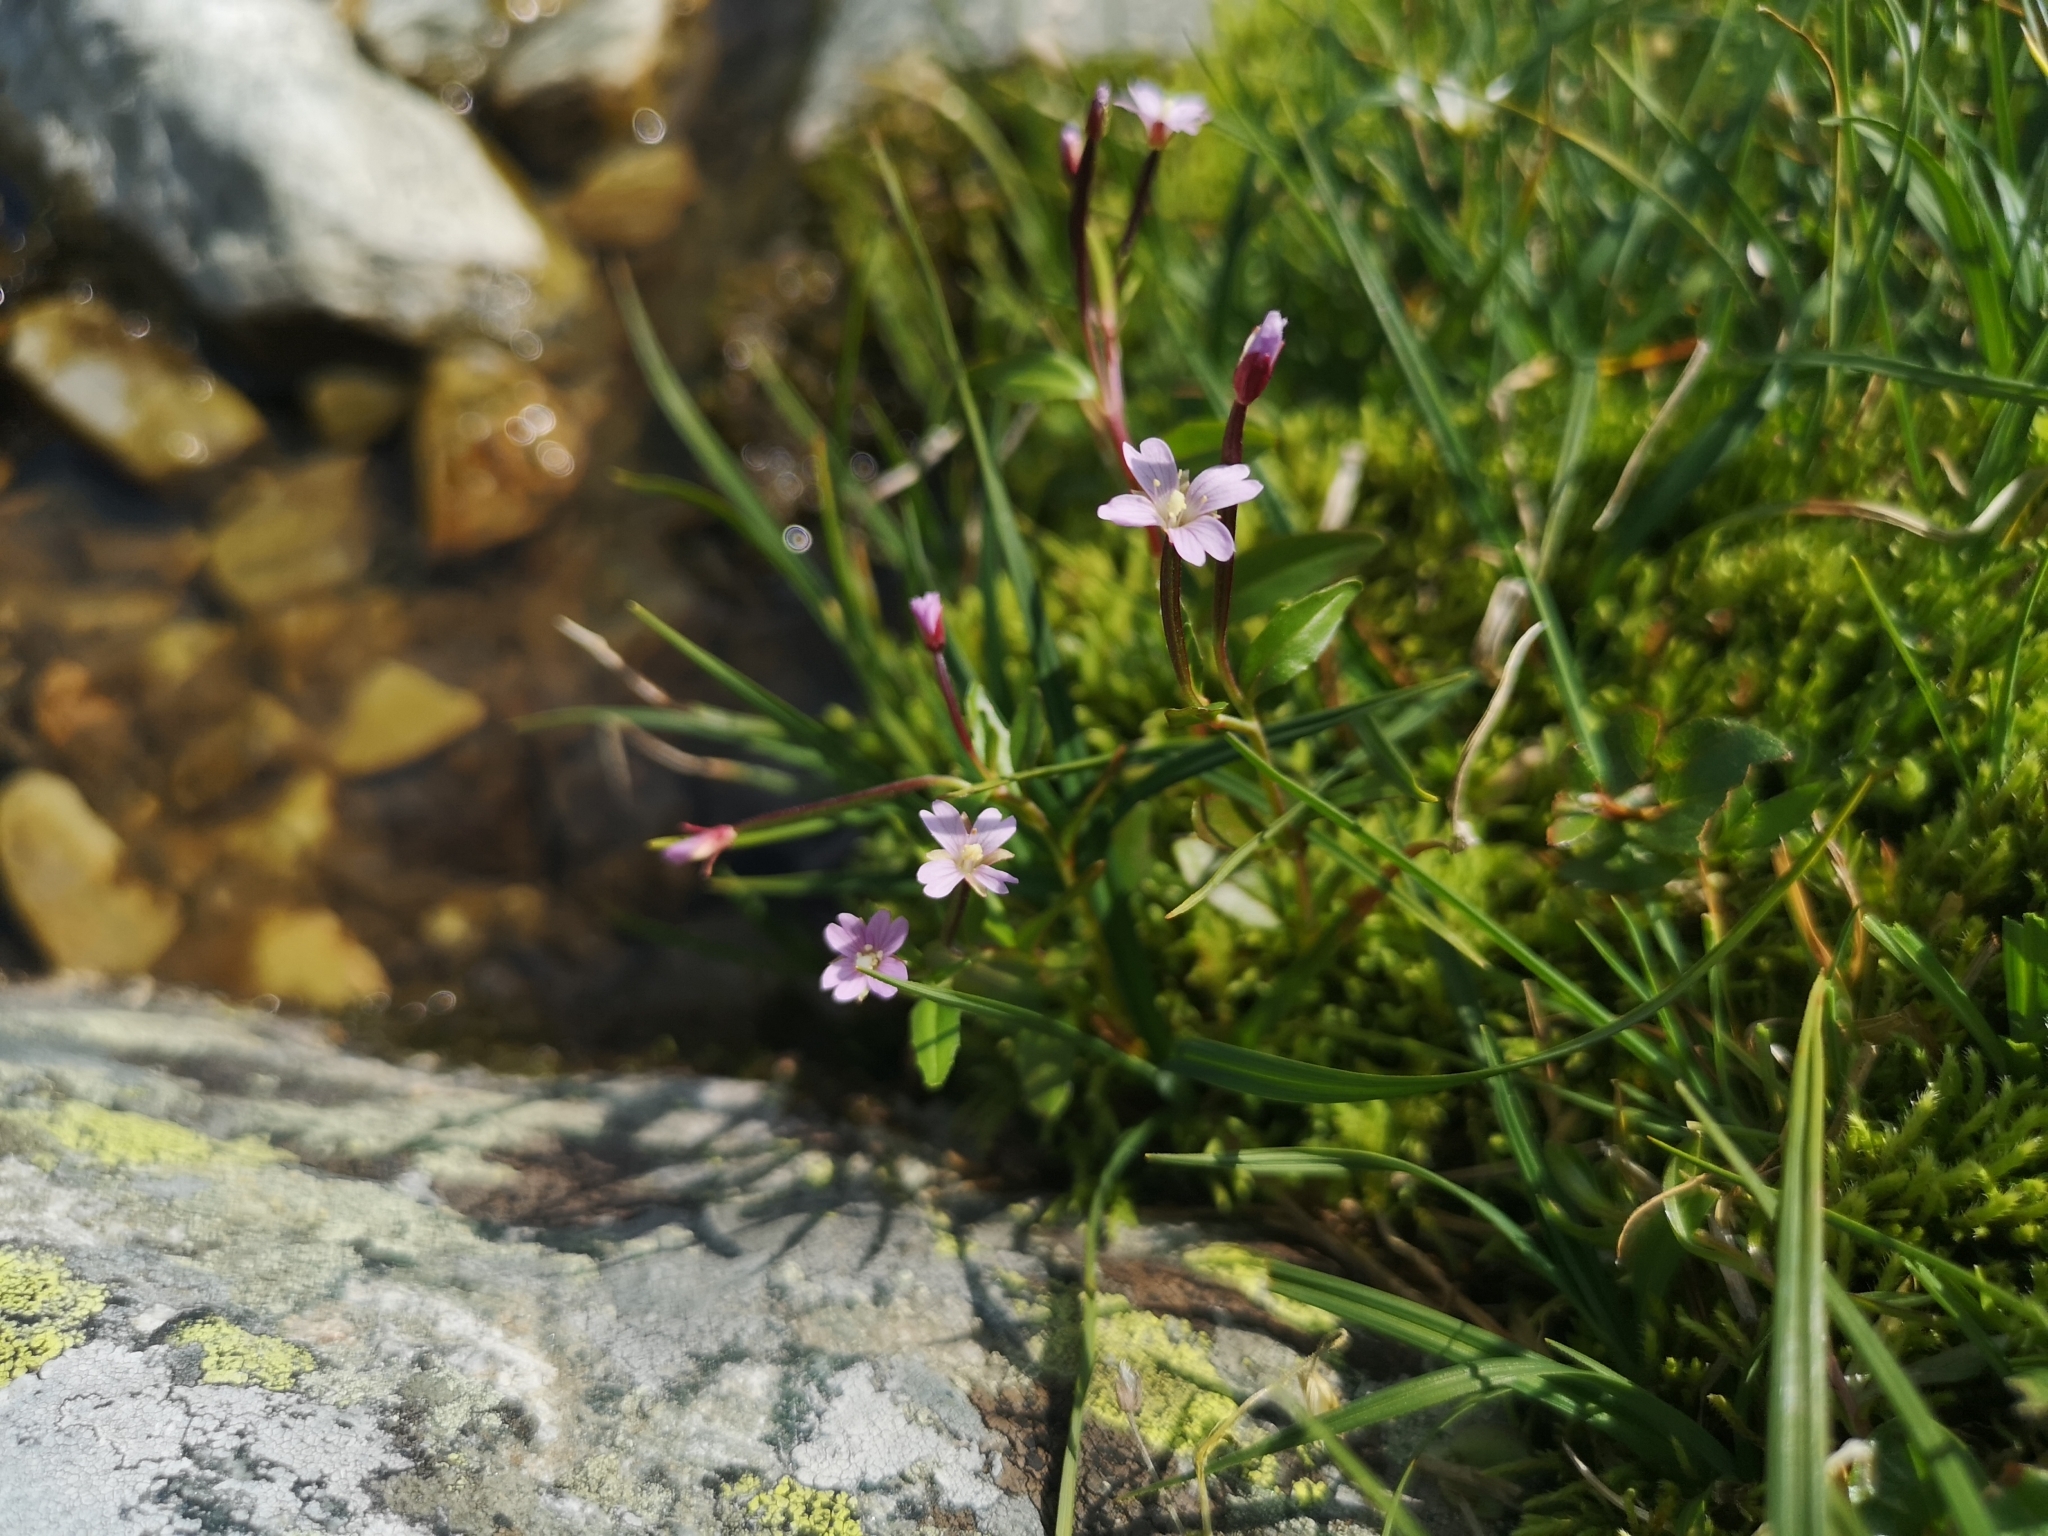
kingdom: Plantae
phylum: Tracheophyta
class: Magnoliopsida
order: Myrtales
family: Onagraceae
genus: Epilobium
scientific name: Epilobium hornemannii
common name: Hornemann's willowherb
